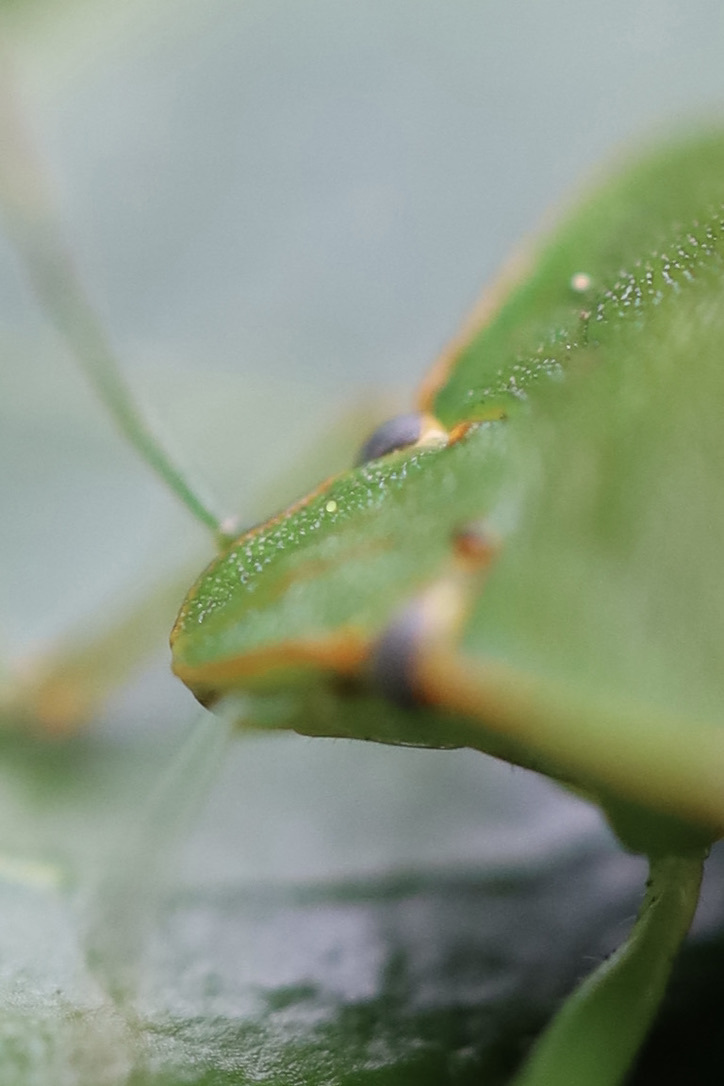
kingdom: Animalia
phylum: Arthropoda
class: Insecta
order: Hemiptera
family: Pentatomidae
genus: Chinavia
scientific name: Chinavia hilaris
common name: Green stink bug
